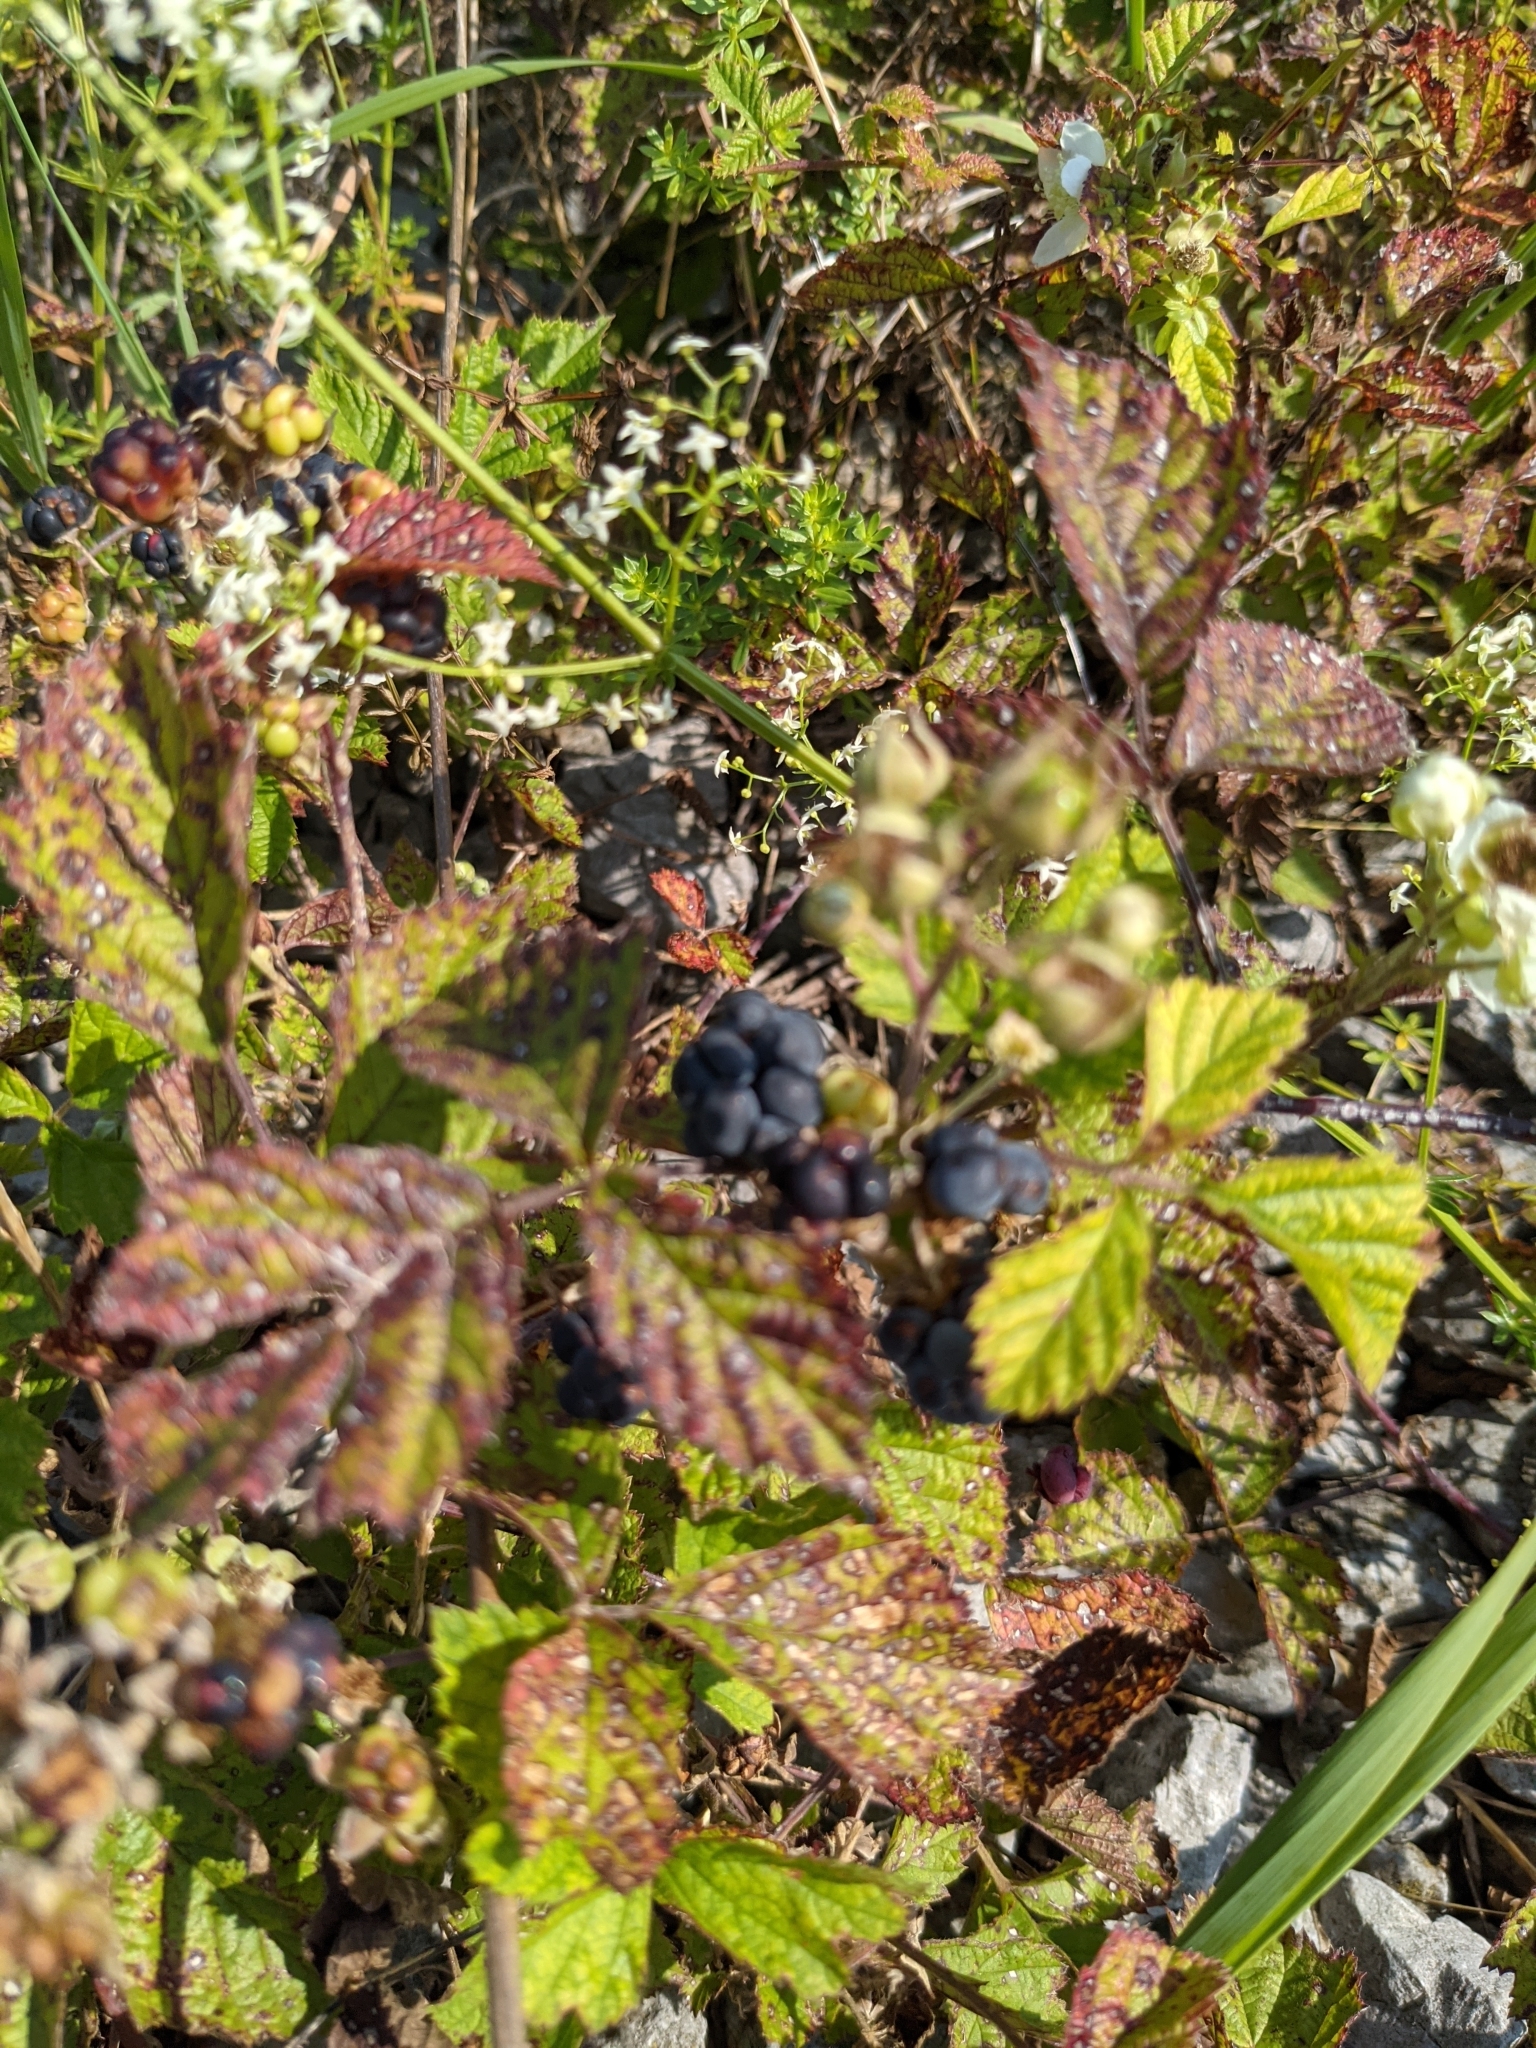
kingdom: Plantae
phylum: Tracheophyta
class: Magnoliopsida
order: Rosales
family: Rosaceae
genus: Rubus
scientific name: Rubus caesius
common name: Dewberry
